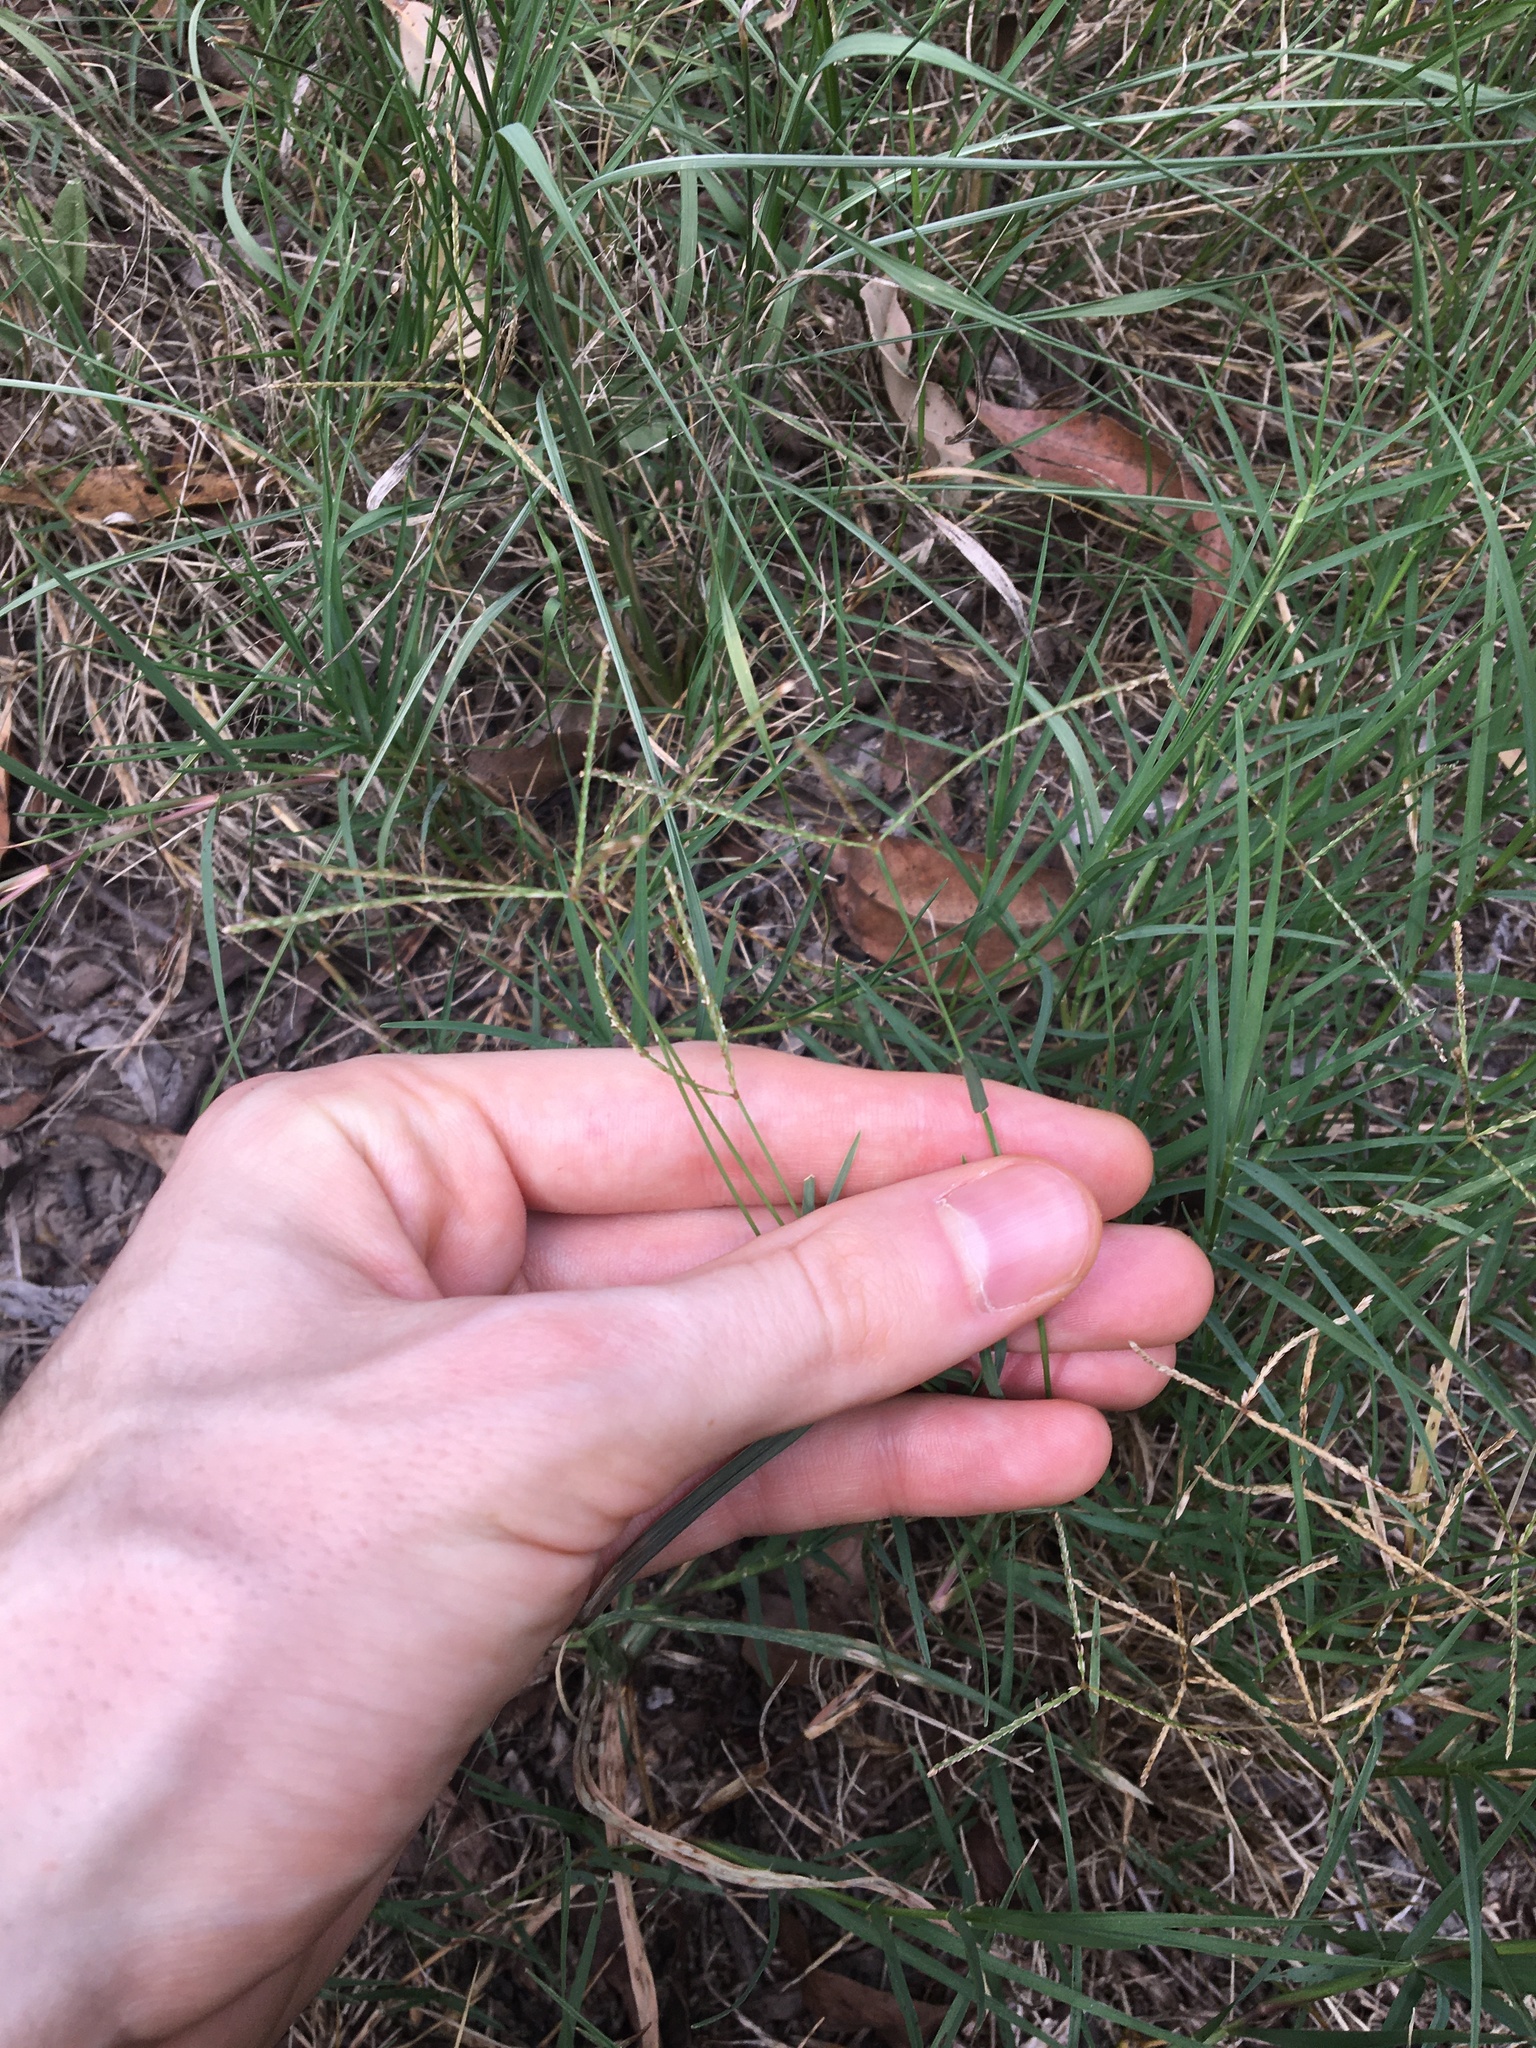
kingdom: Plantae
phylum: Tracheophyta
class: Liliopsida
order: Poales
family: Poaceae
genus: Cynodon
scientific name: Cynodon dactylon
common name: Bermuda grass
